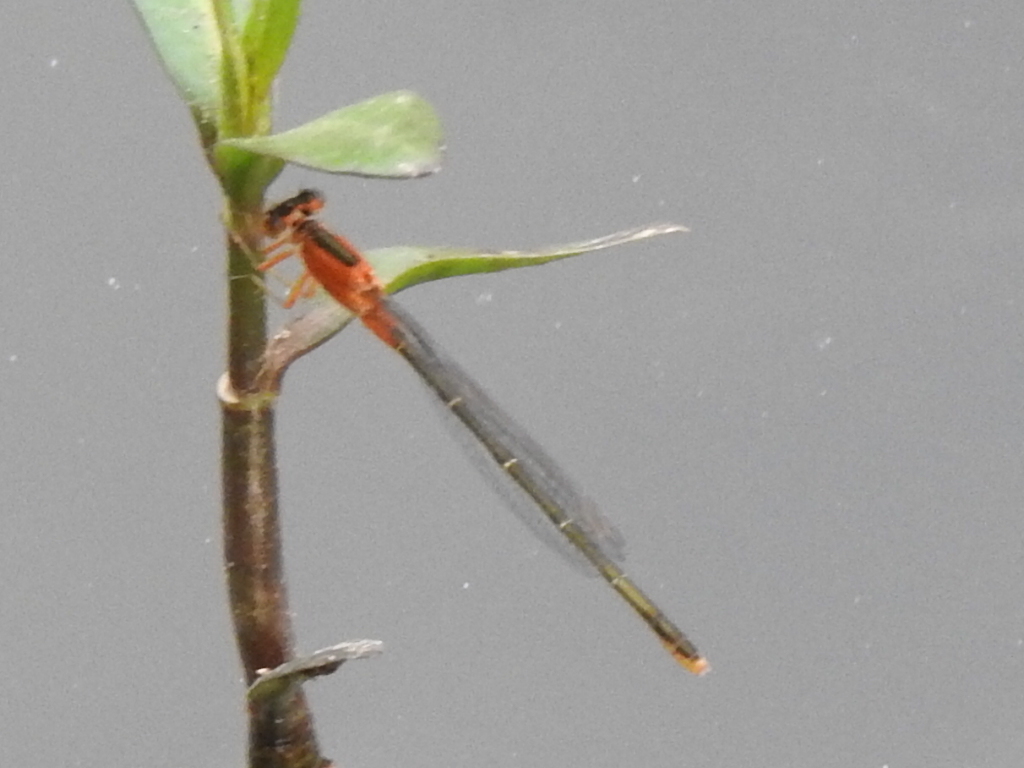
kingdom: Animalia
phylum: Arthropoda
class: Insecta
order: Odonata
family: Coenagrionidae
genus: Ischnura
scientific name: Ischnura ramburii
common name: Rambur's forktail
